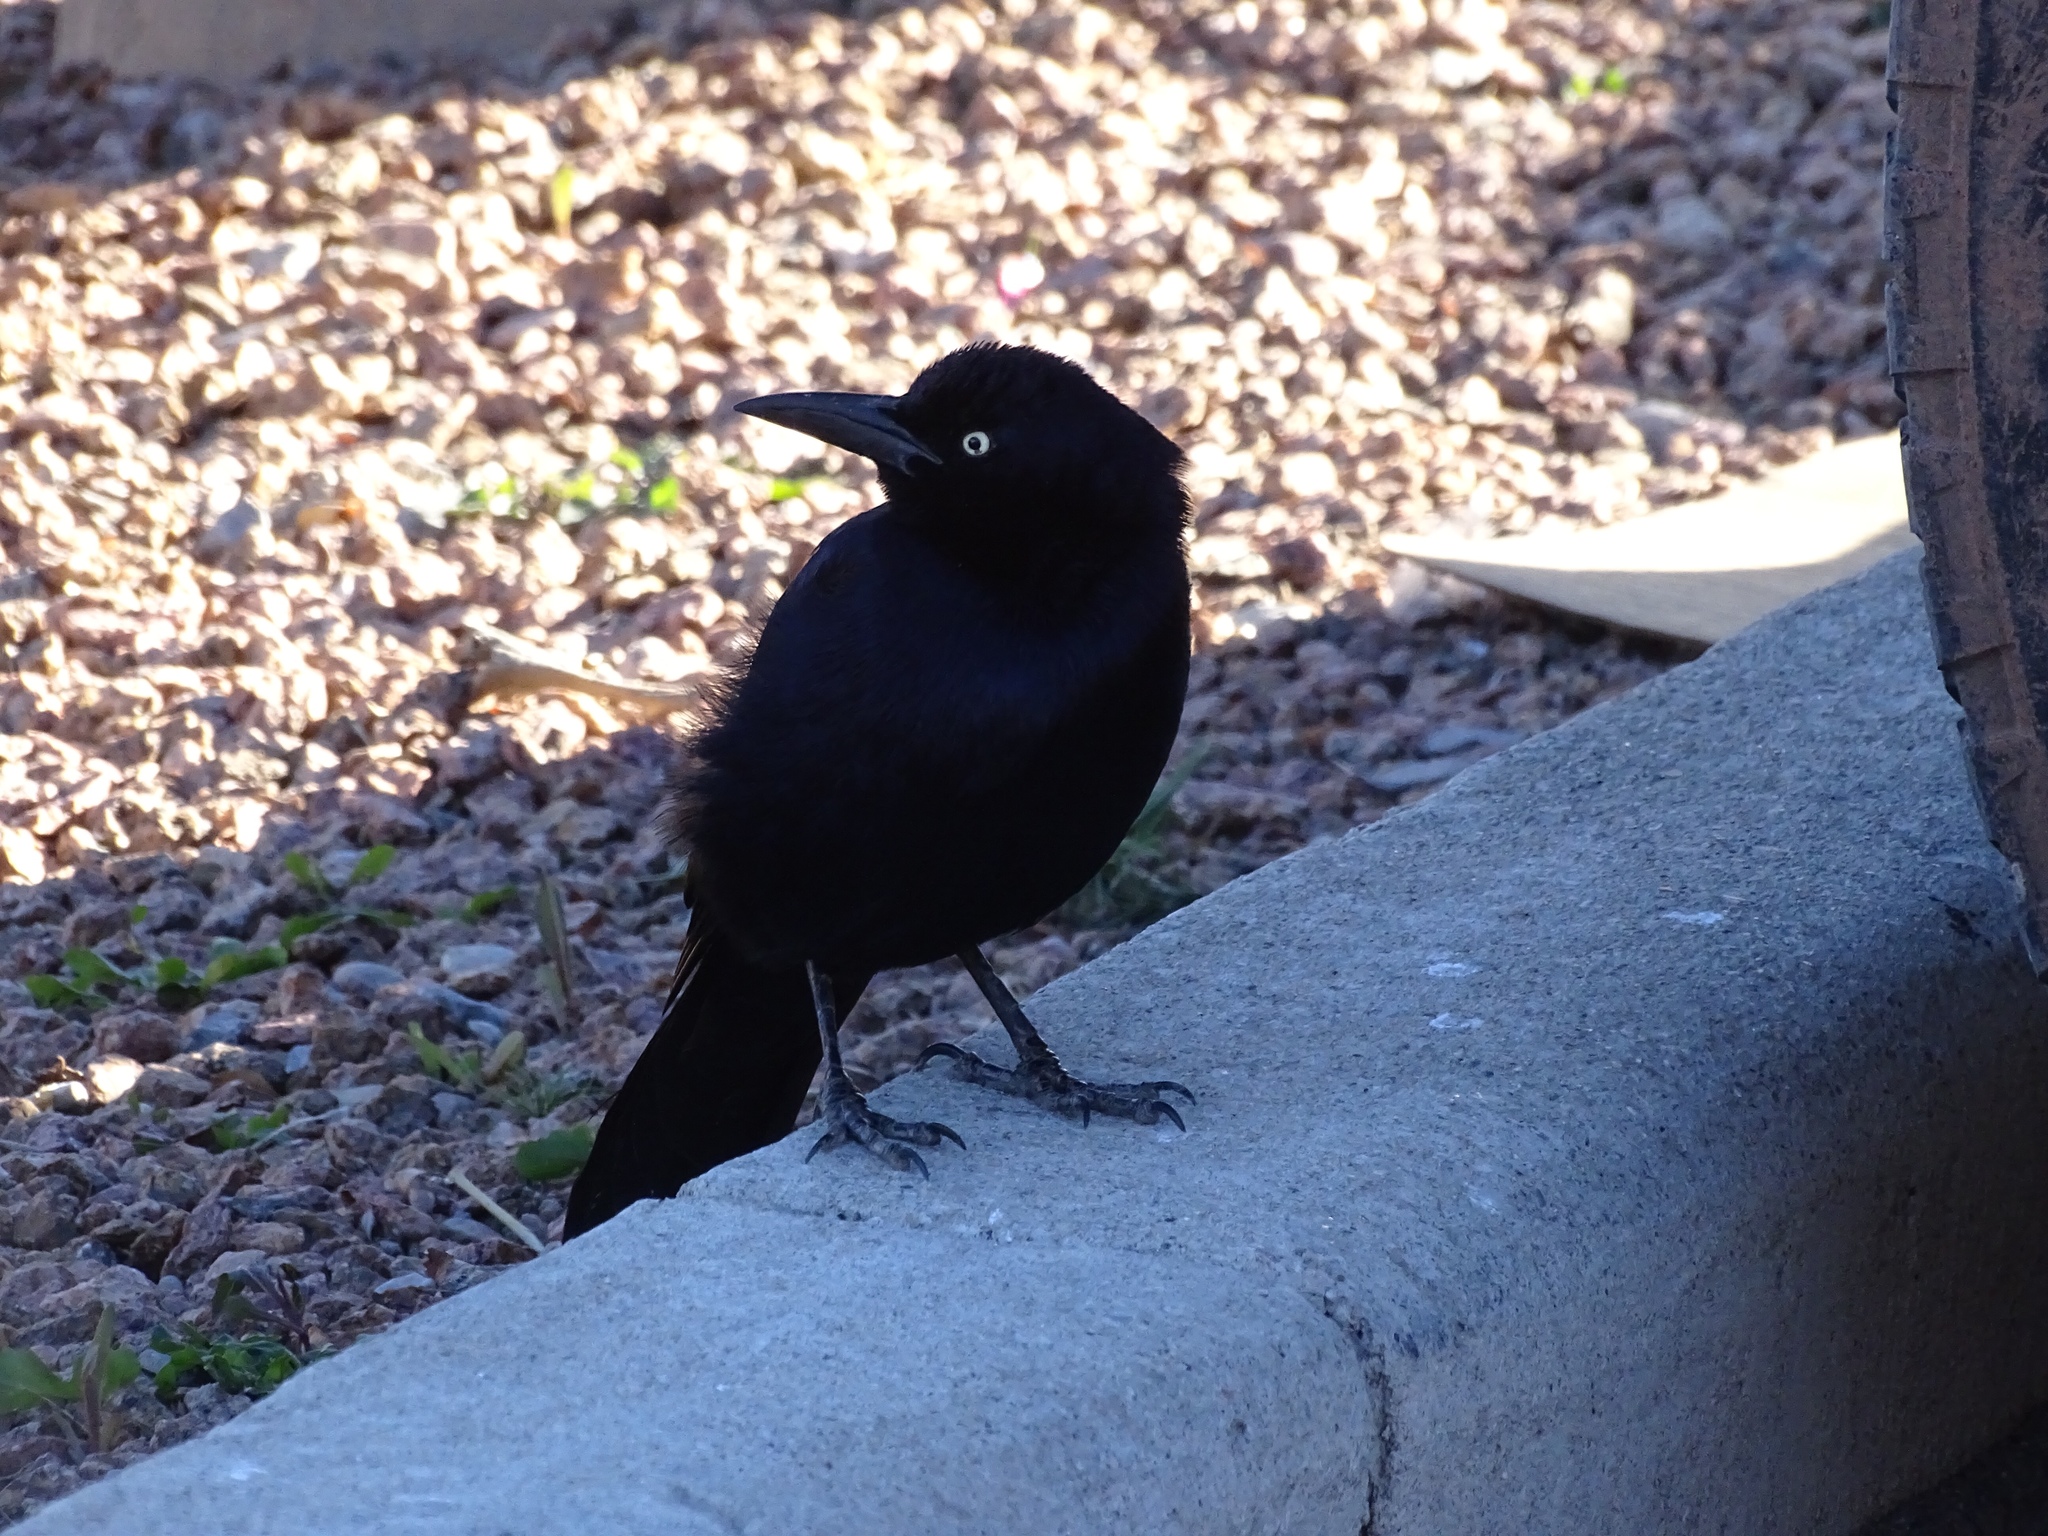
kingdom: Animalia
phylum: Chordata
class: Aves
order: Passeriformes
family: Icteridae
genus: Quiscalus
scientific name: Quiscalus mexicanus
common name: Great-tailed grackle
